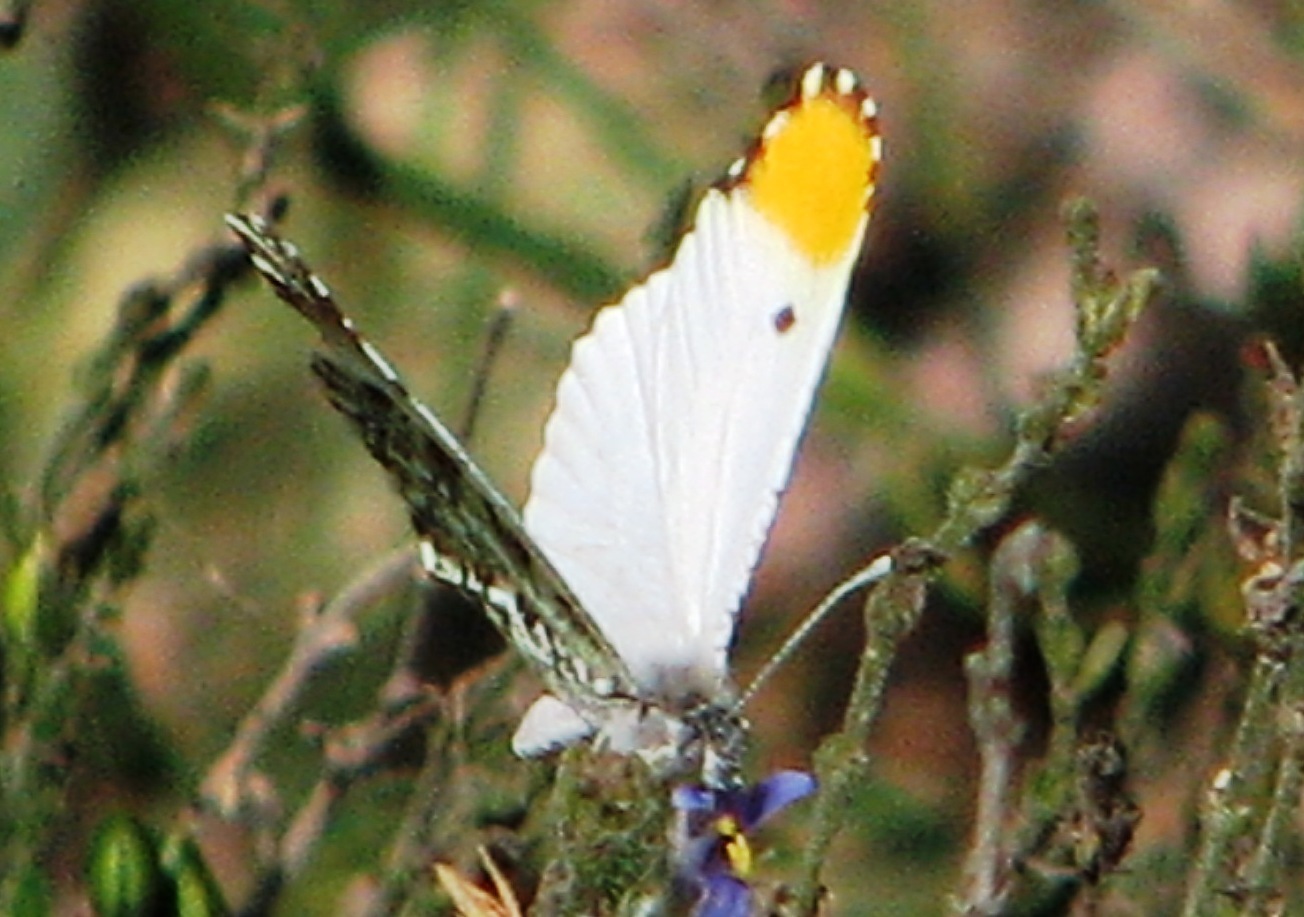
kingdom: Animalia
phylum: Arthropoda
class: Insecta
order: Lepidoptera
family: Pieridae
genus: Anthocharis
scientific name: Anthocharis midea
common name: Falcate orangetip
